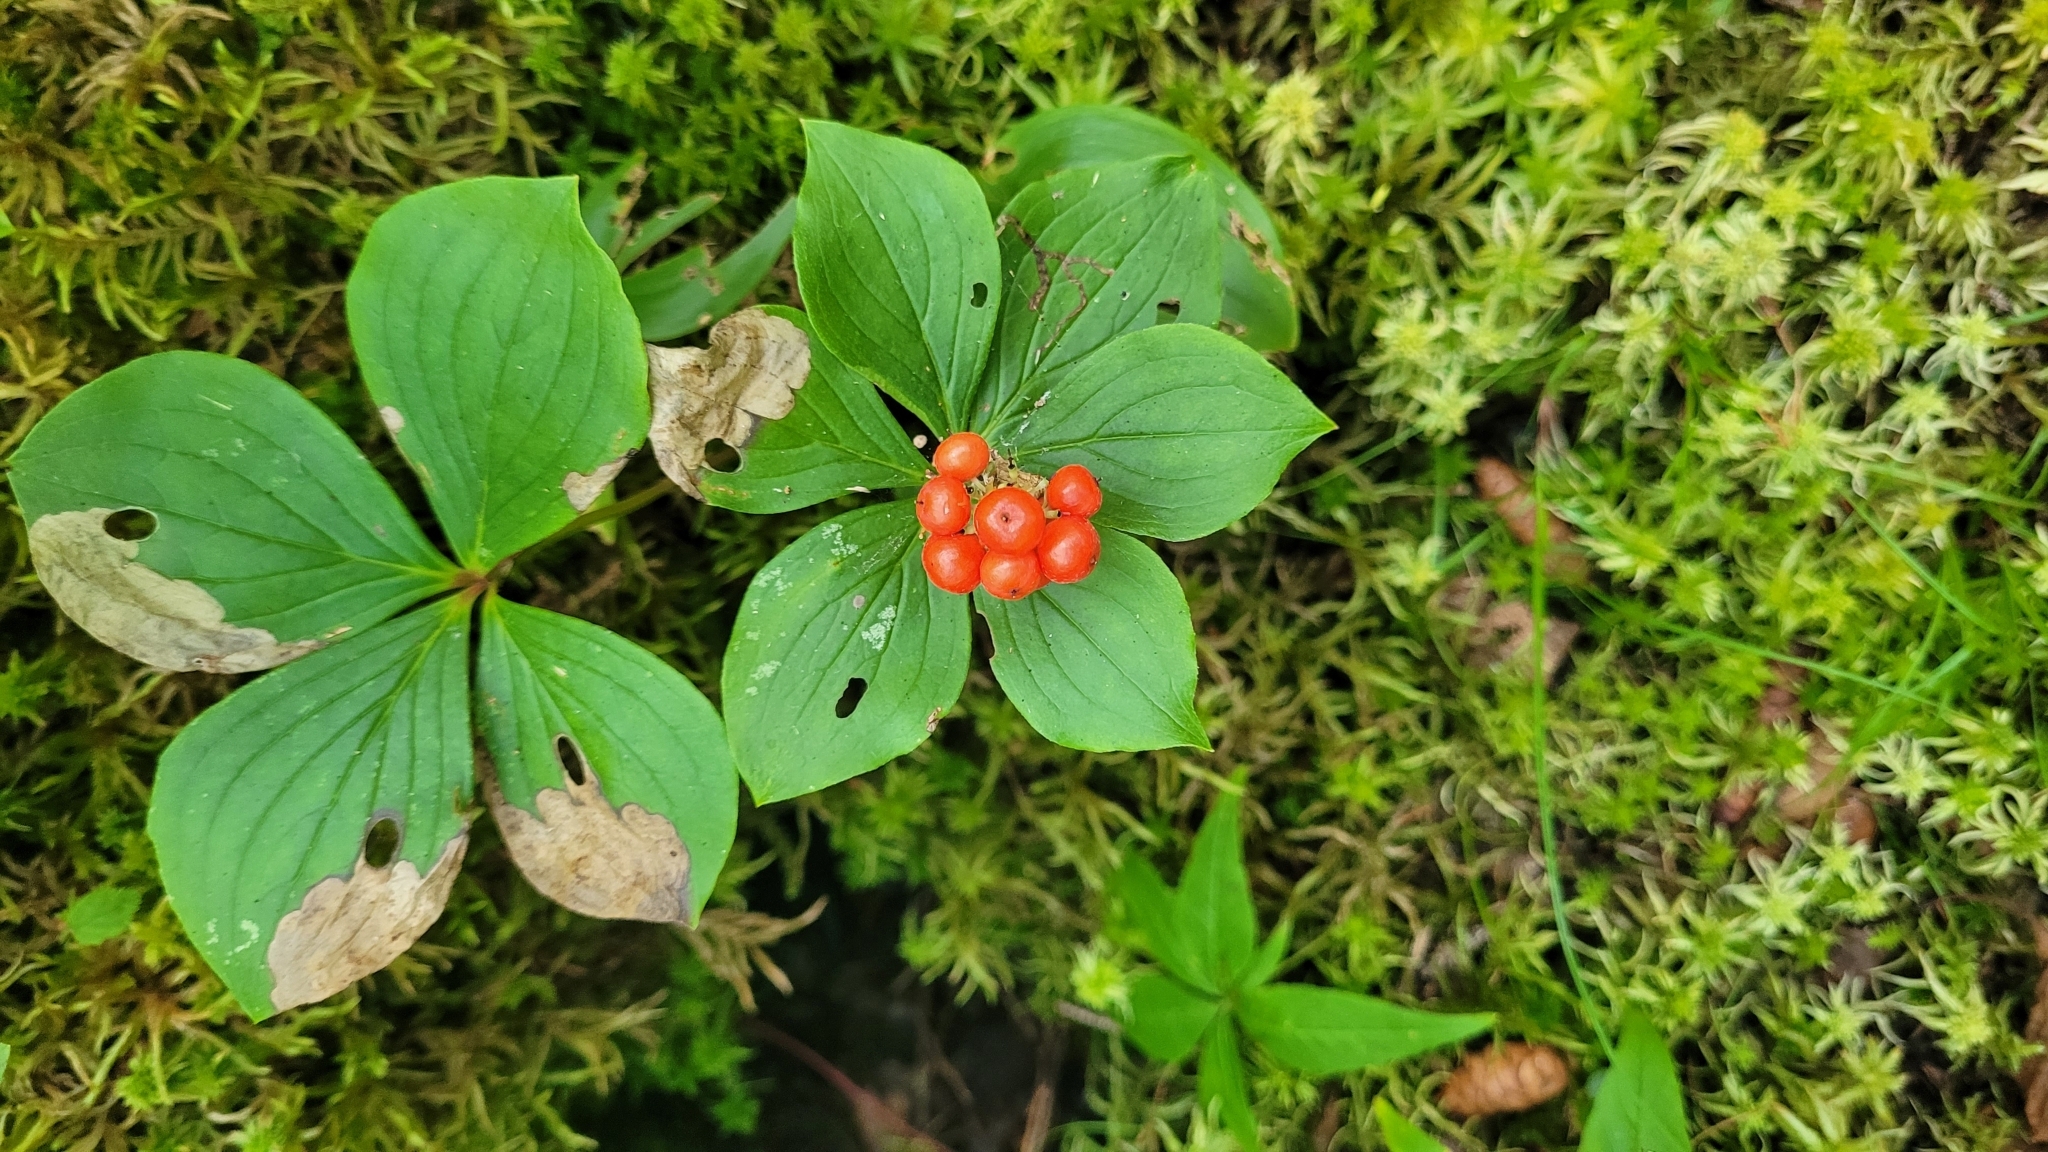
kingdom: Plantae
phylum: Tracheophyta
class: Magnoliopsida
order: Cornales
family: Cornaceae
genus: Cornus
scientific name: Cornus canadensis
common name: Creeping dogwood
